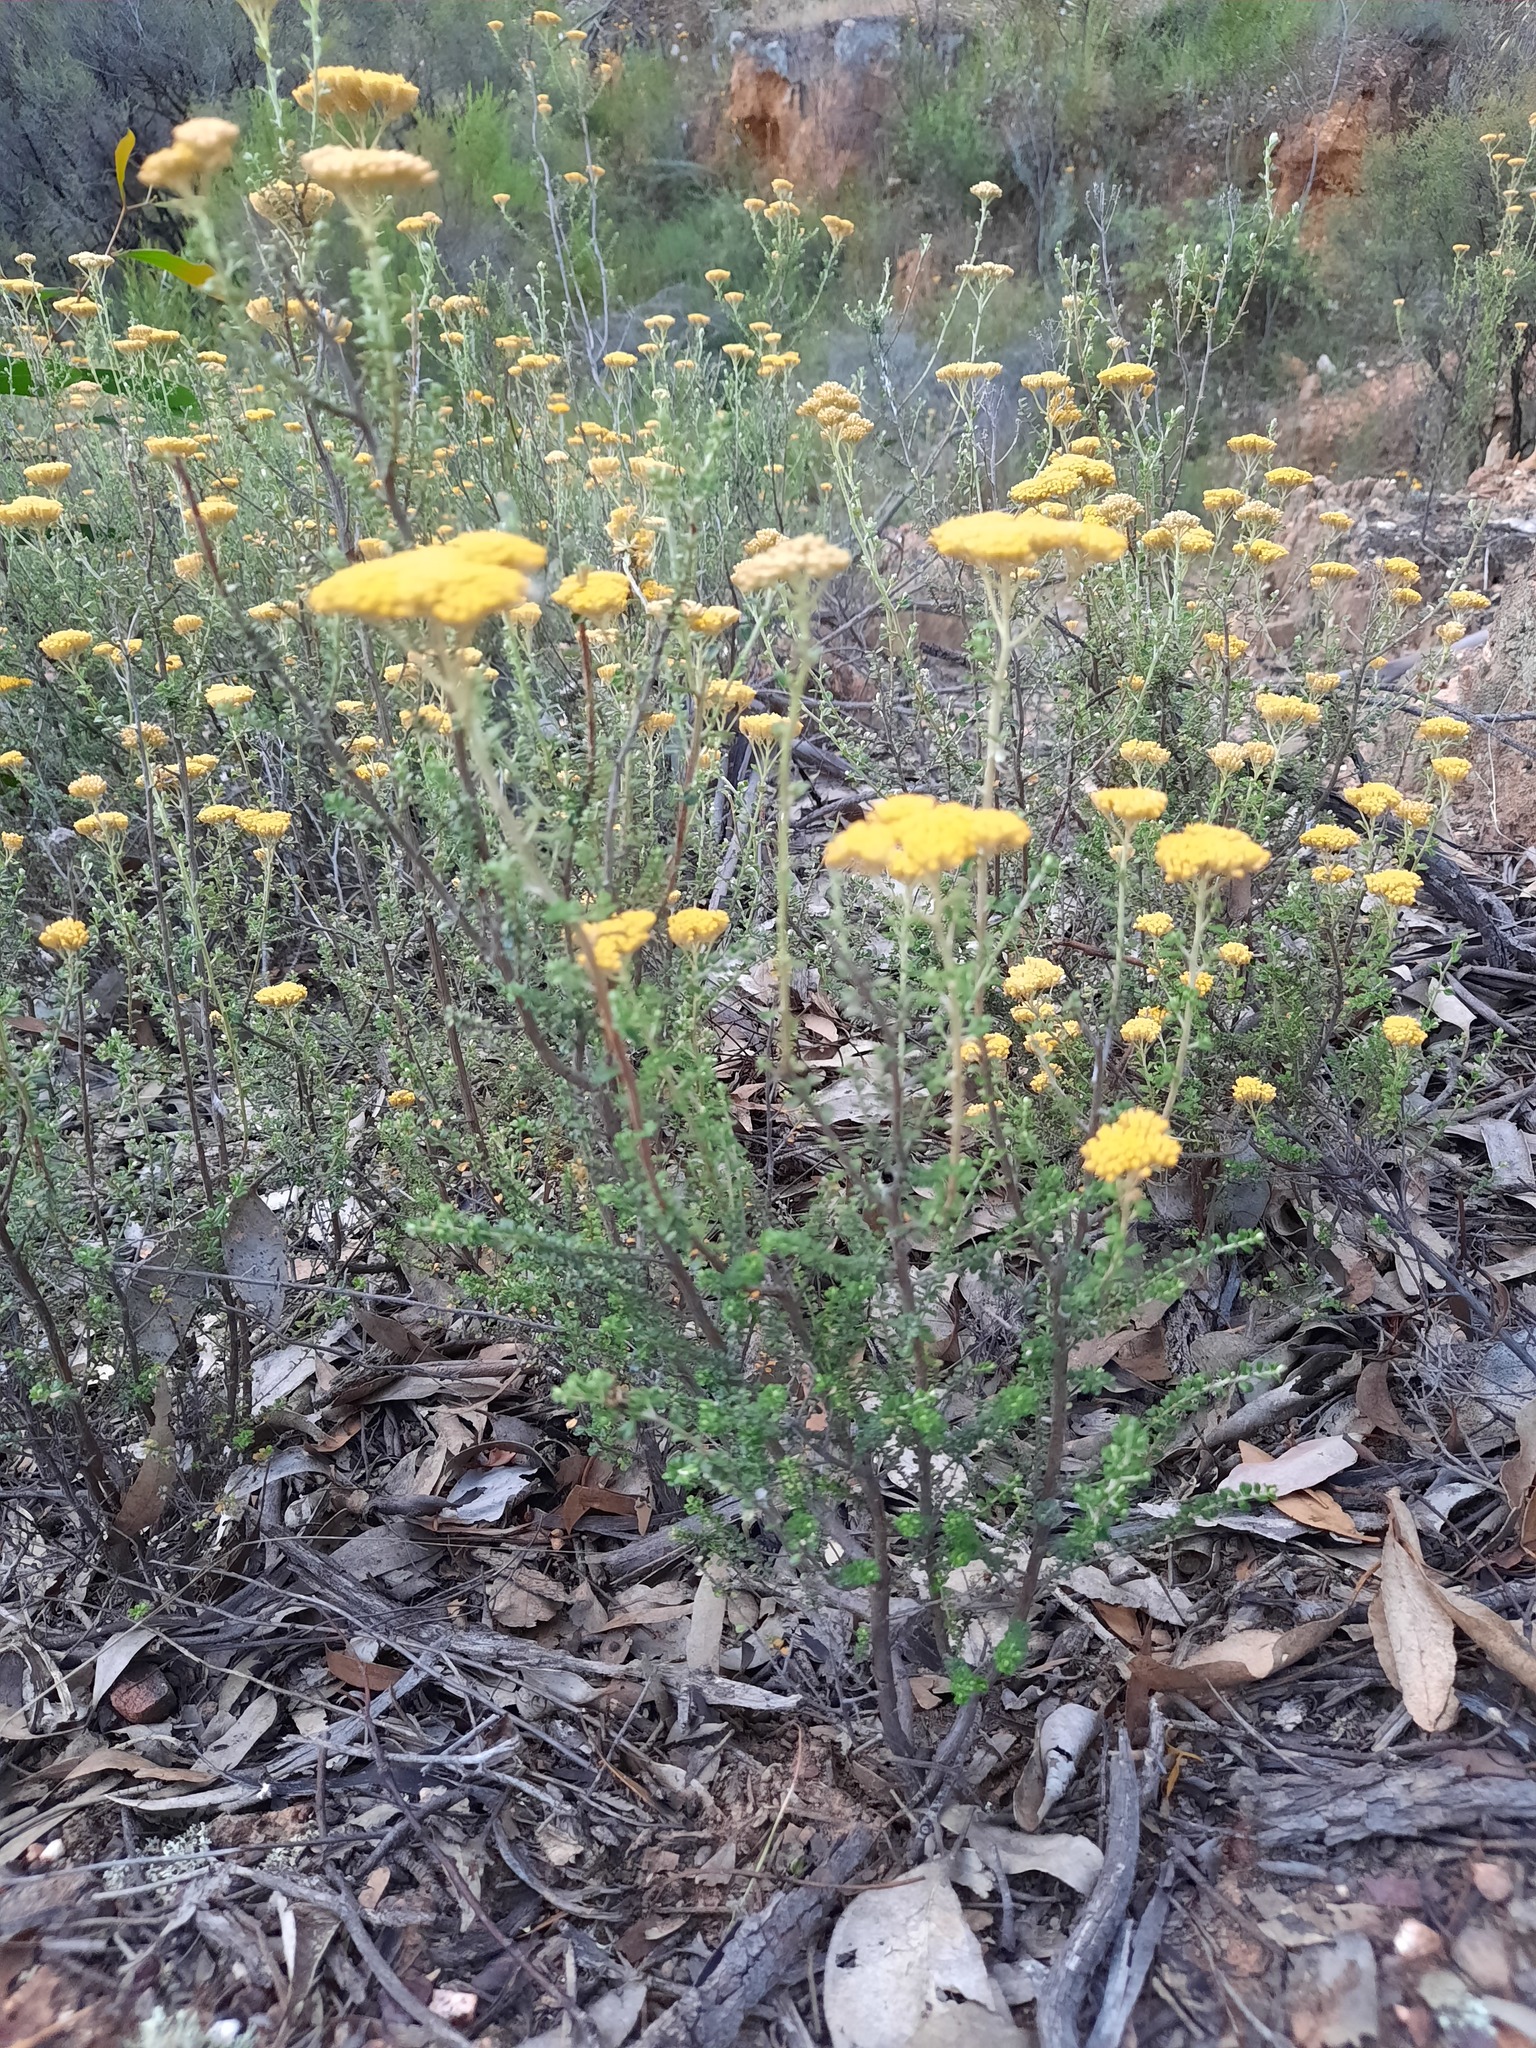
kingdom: Plantae
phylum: Tracheophyta
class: Magnoliopsida
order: Asterales
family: Asteraceae
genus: Ozothamnus
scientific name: Ozothamnus obcordatus
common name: Grey everlasting
